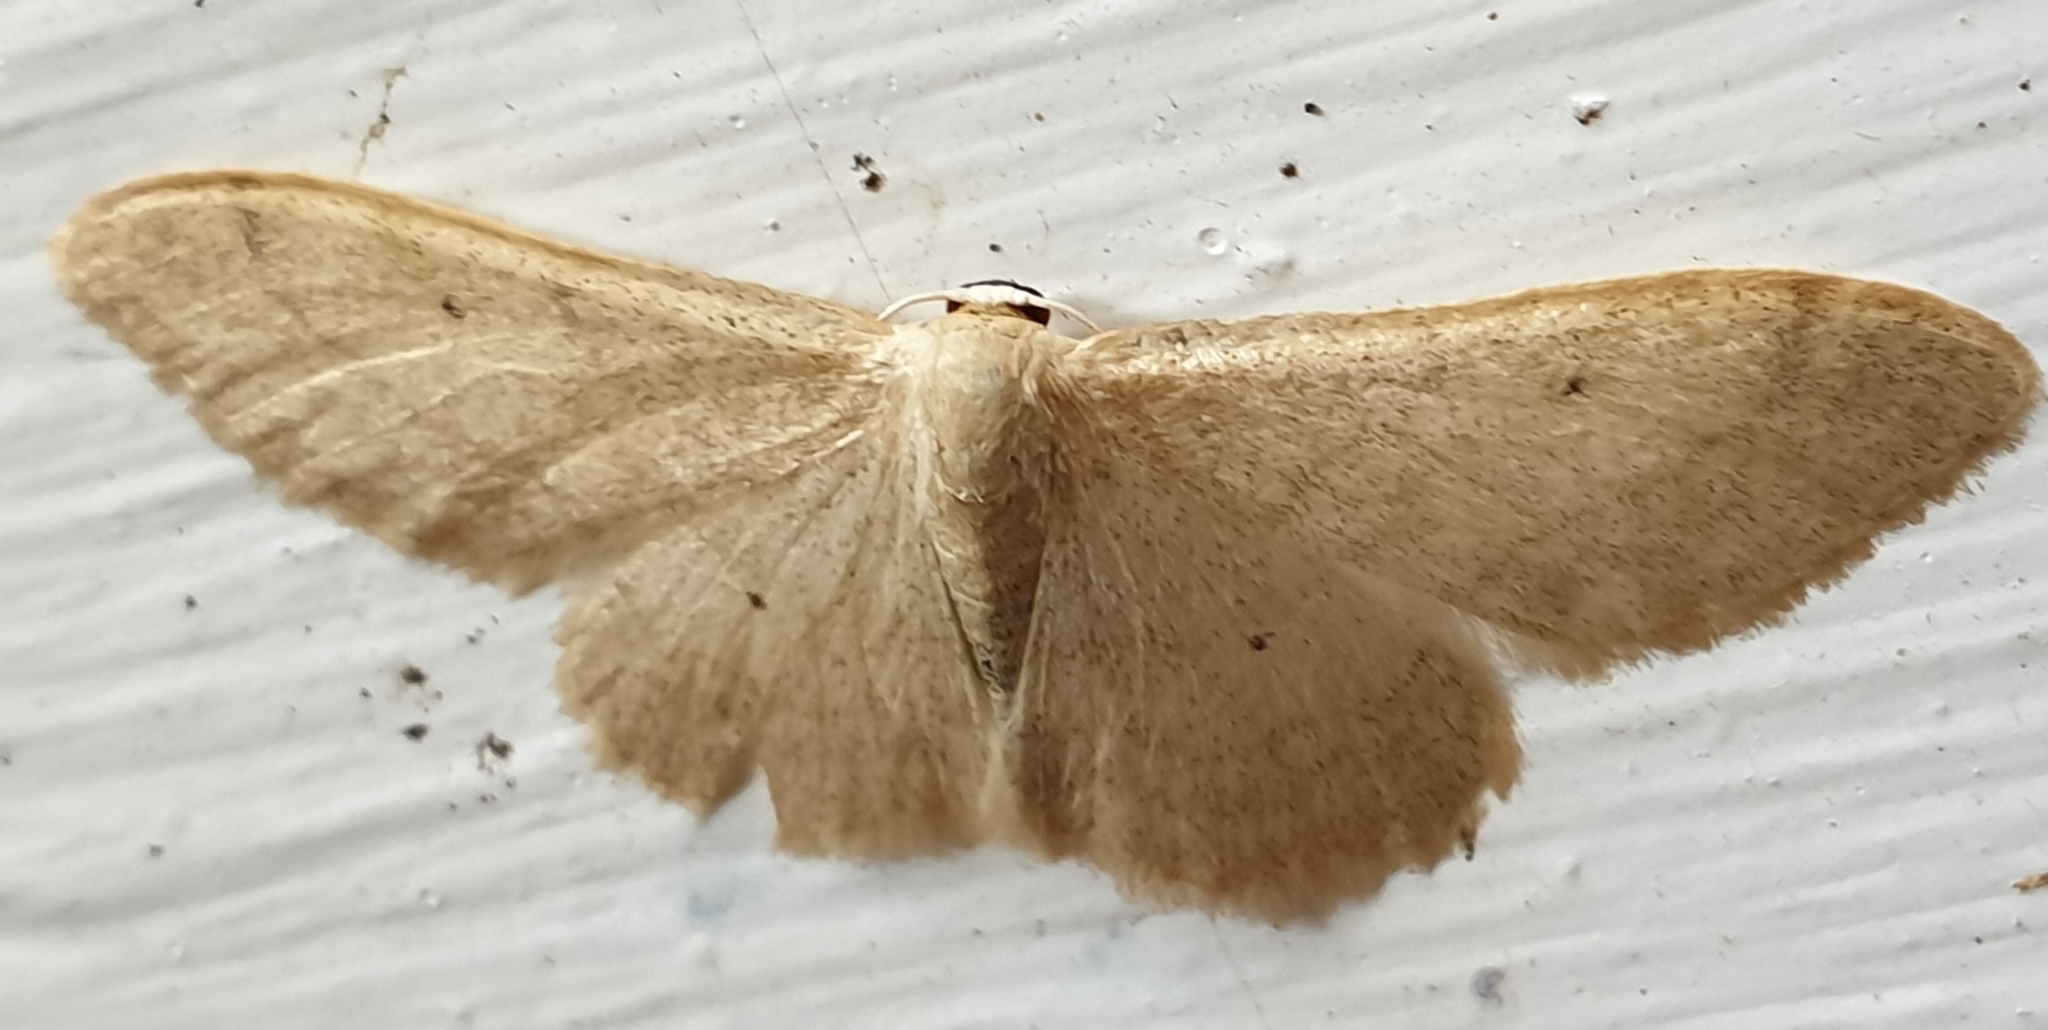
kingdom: Animalia
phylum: Arthropoda
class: Insecta
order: Lepidoptera
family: Geometridae
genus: Idaea
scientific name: Idaea straminata
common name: Plain wave
